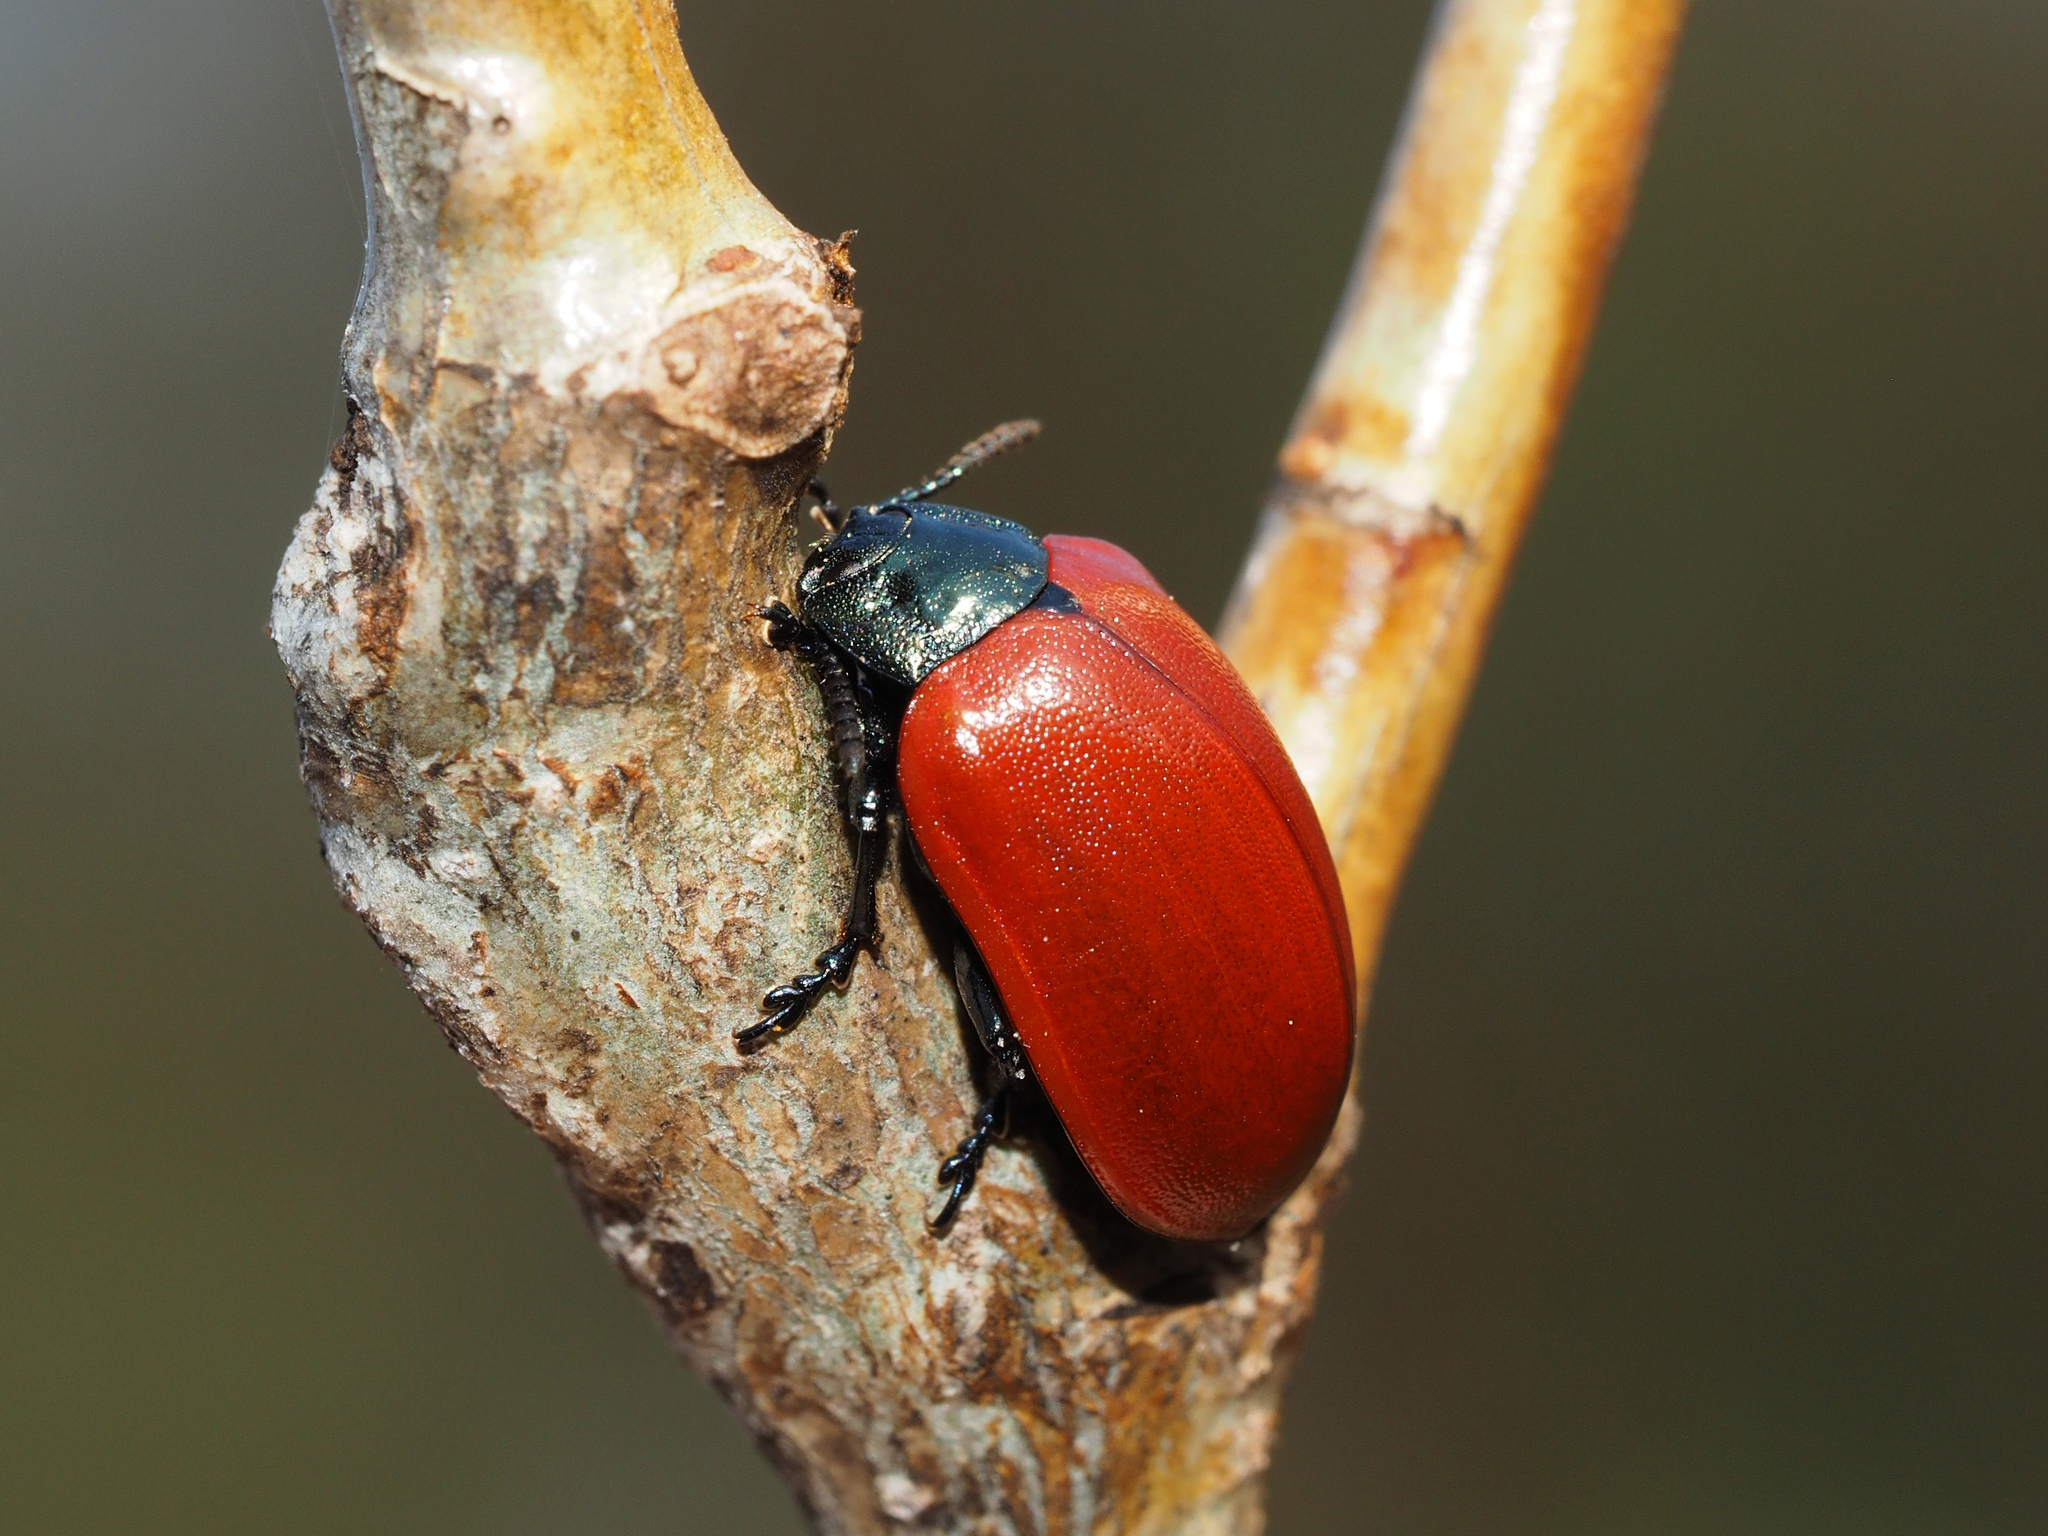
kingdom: Animalia
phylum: Arthropoda
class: Insecta
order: Coleoptera
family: Chrysomelidae
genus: Chrysomela
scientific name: Chrysomela populi
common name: Red poplar leaf beetle
